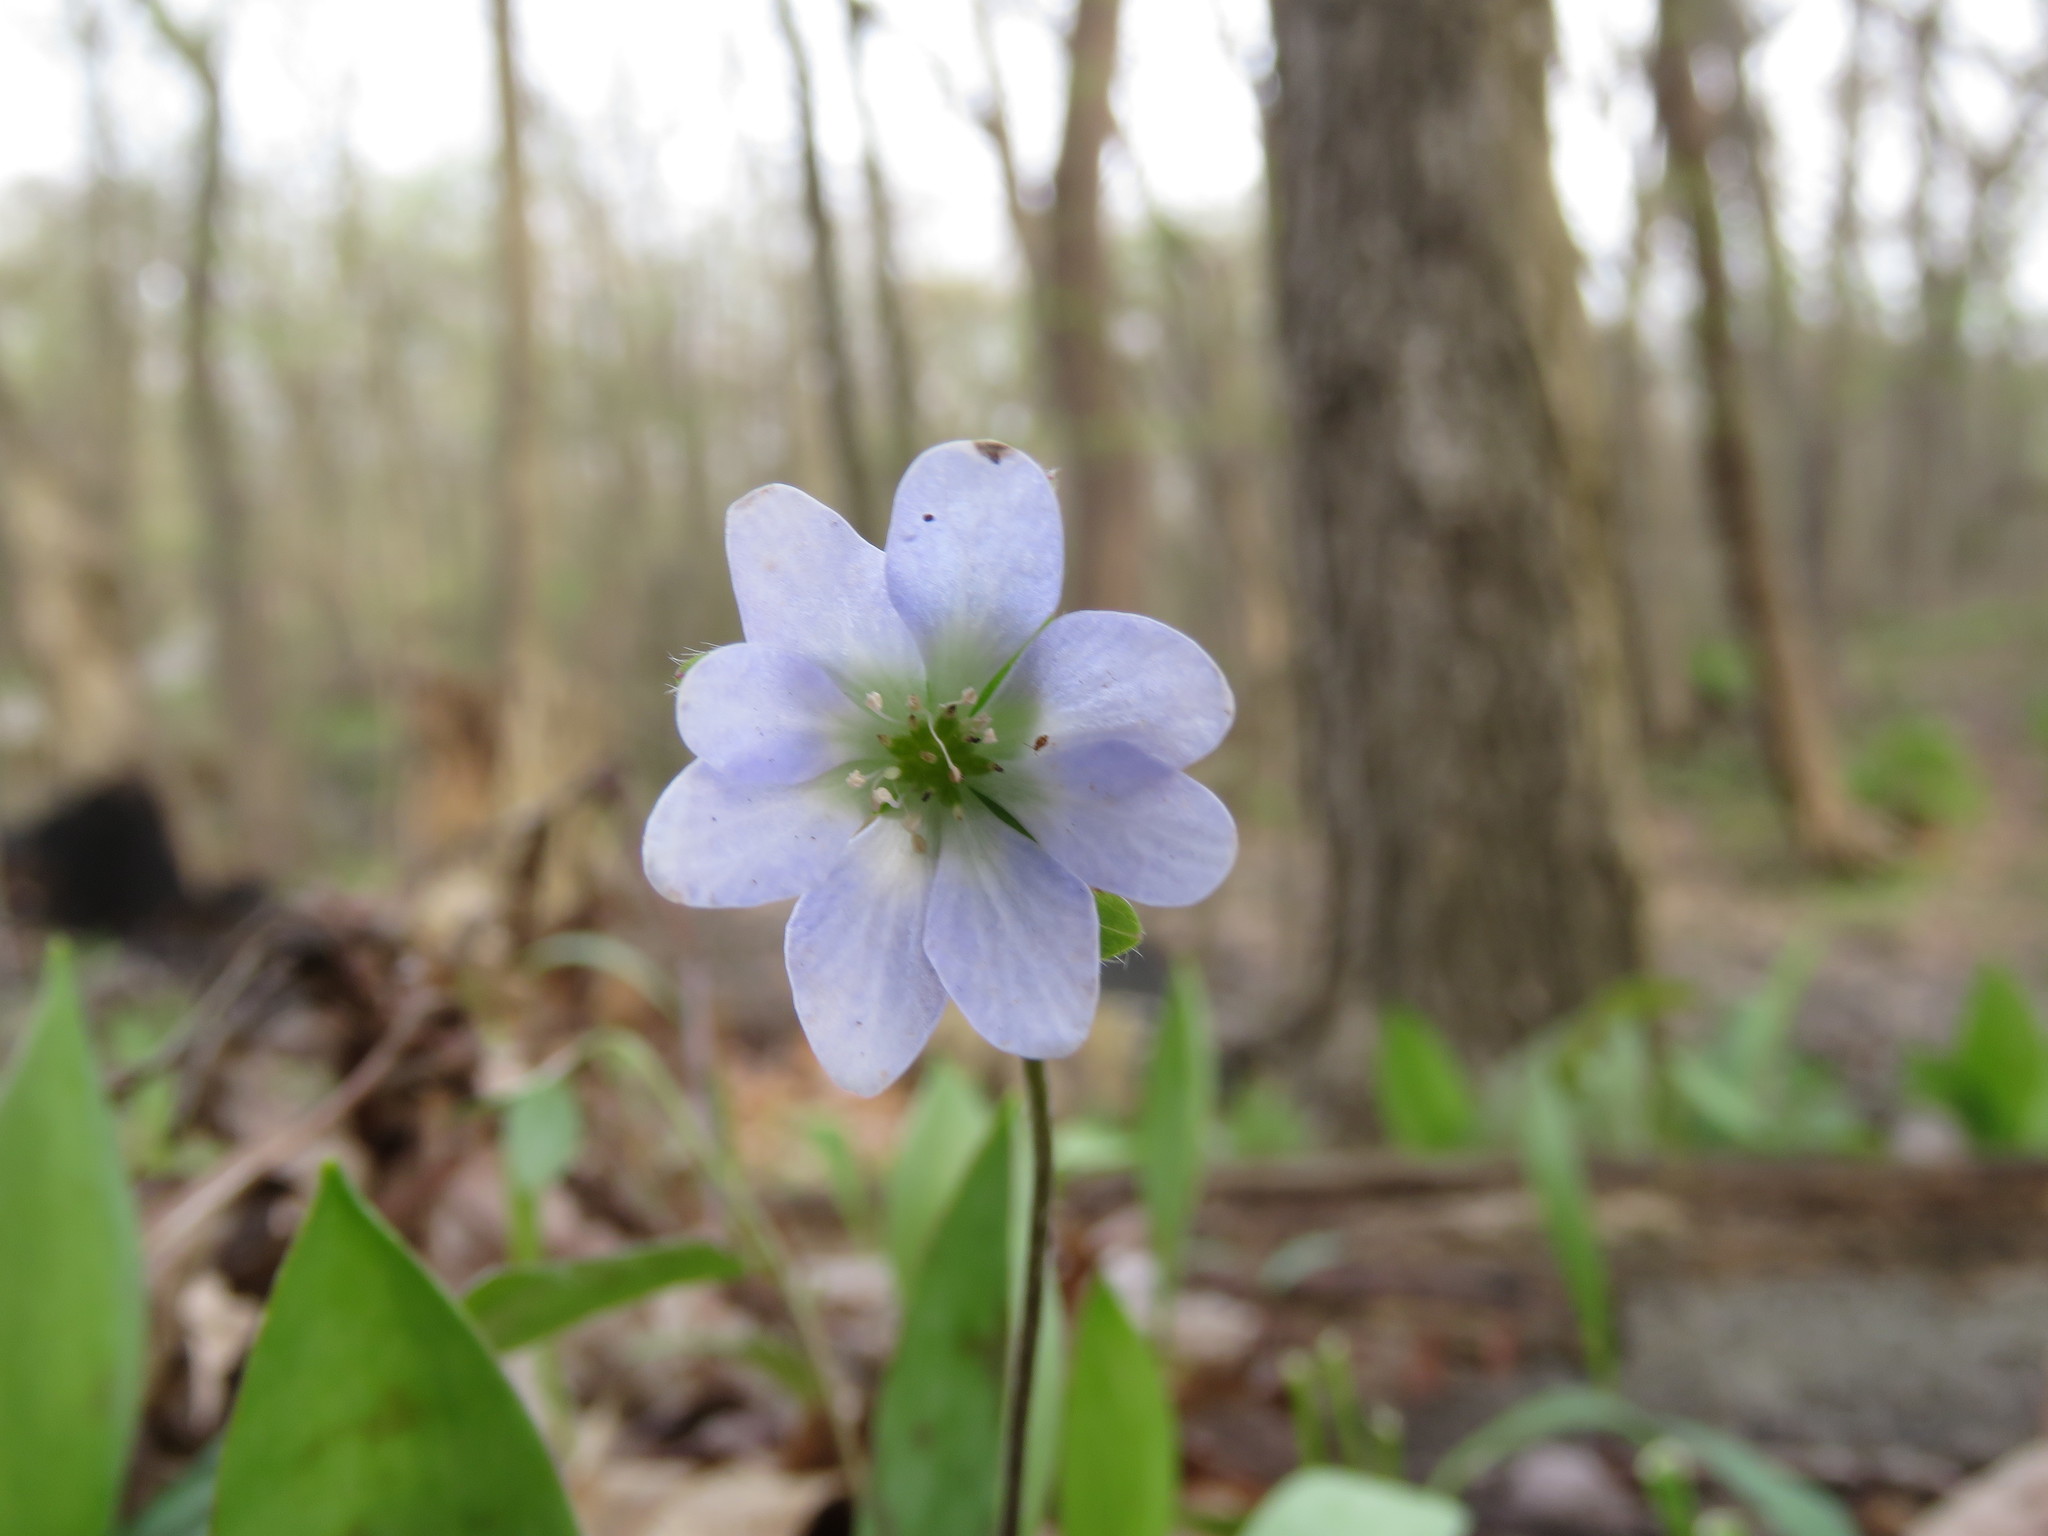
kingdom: Plantae
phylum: Tracheophyta
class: Magnoliopsida
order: Ranunculales
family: Ranunculaceae
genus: Hepatica
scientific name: Hepatica acutiloba
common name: Sharp-lobed hepatica
